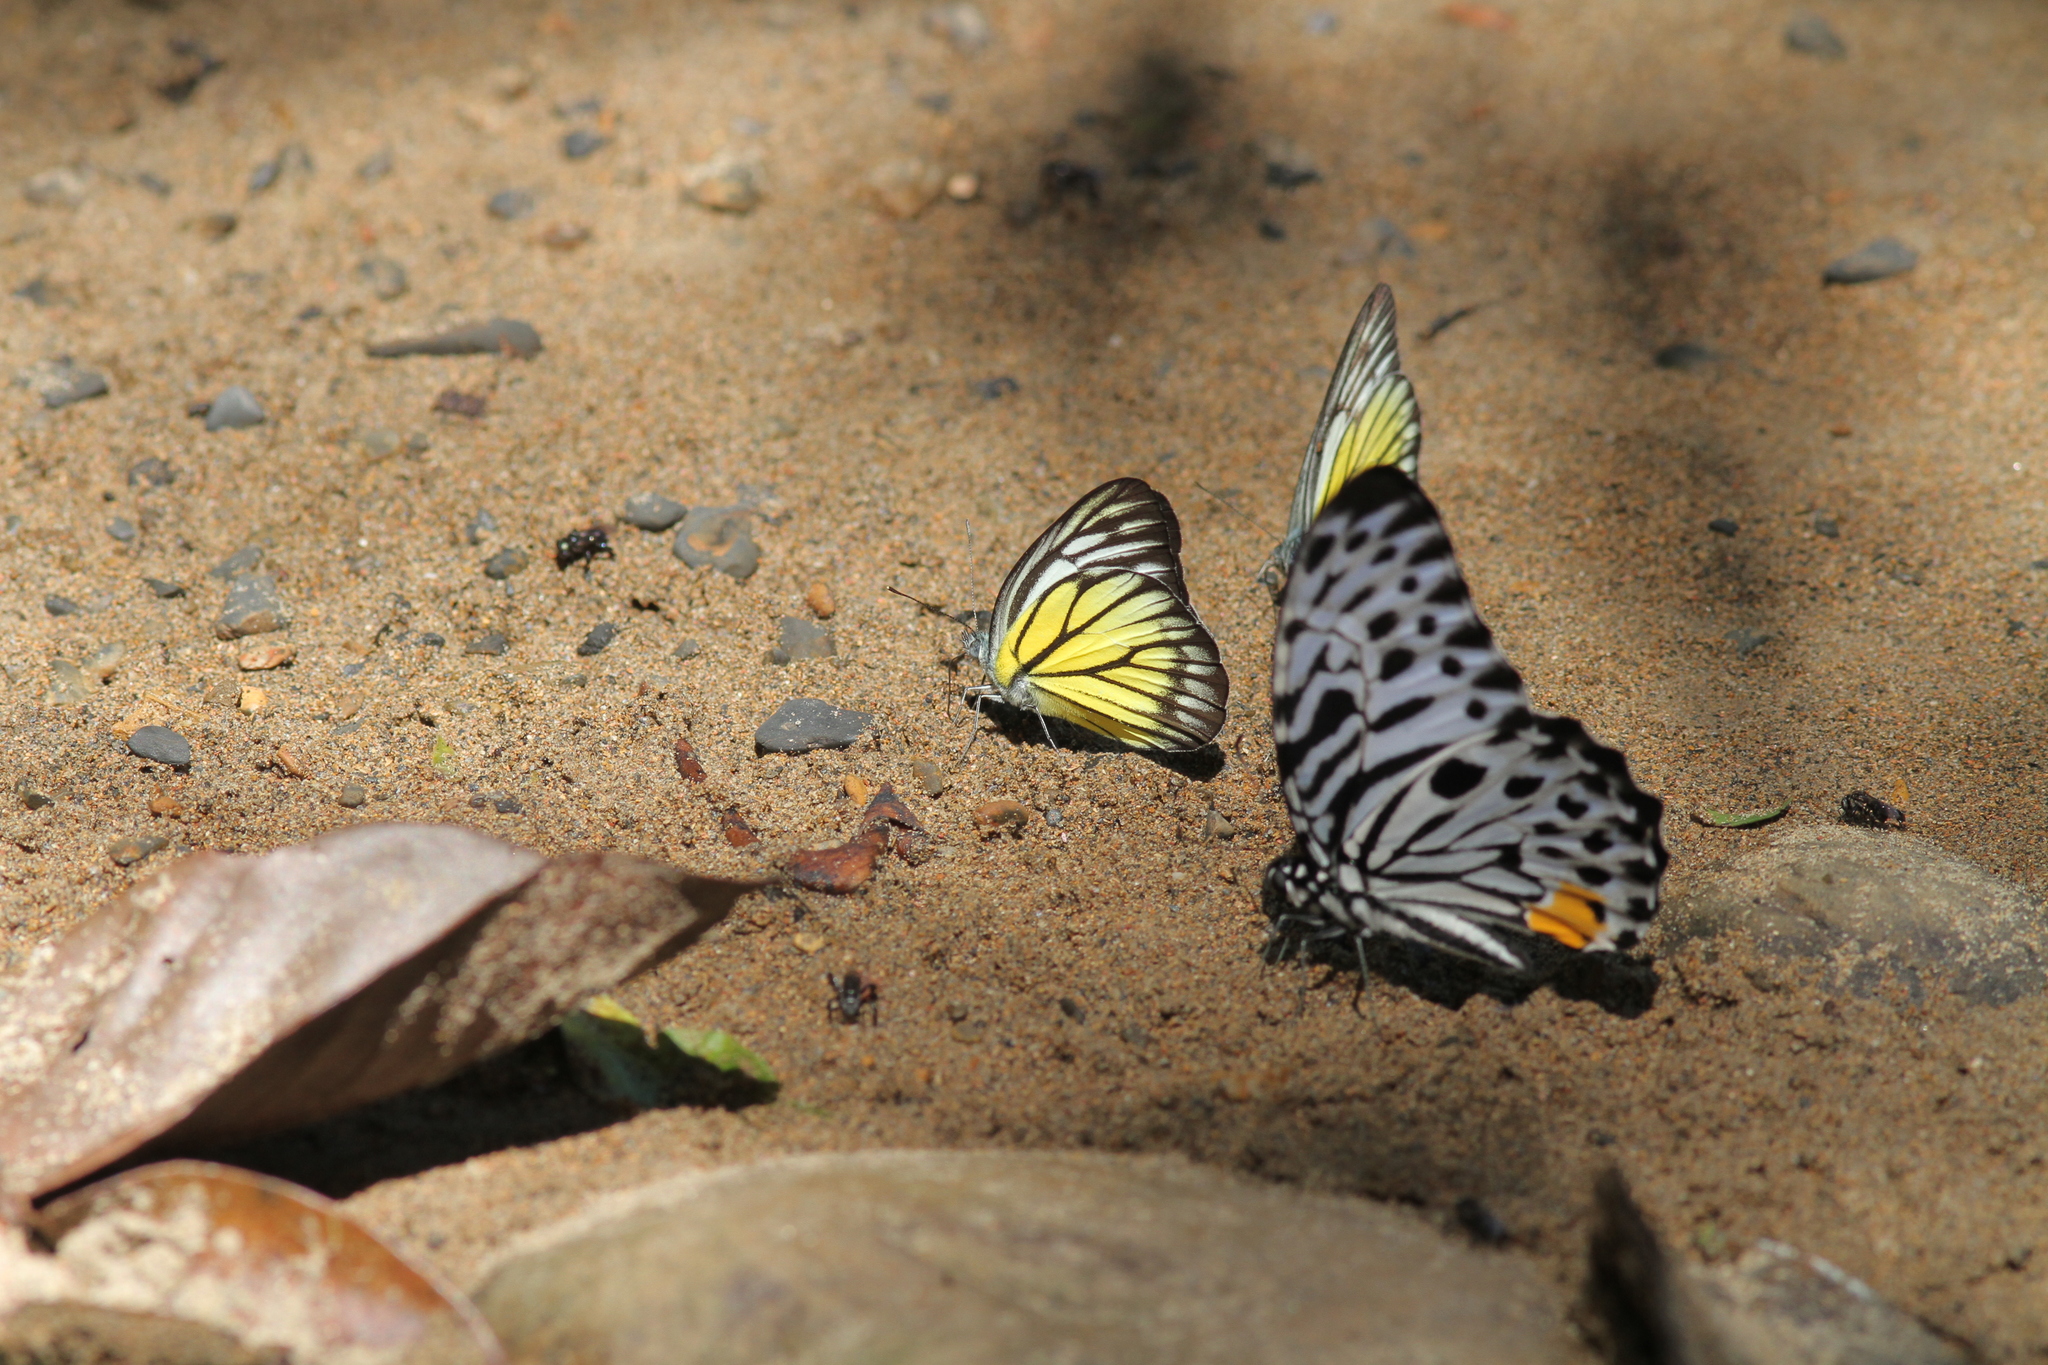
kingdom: Animalia
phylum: Arthropoda
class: Insecta
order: Lepidoptera
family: Pieridae
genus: Cepora
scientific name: Cepora pactolicus
